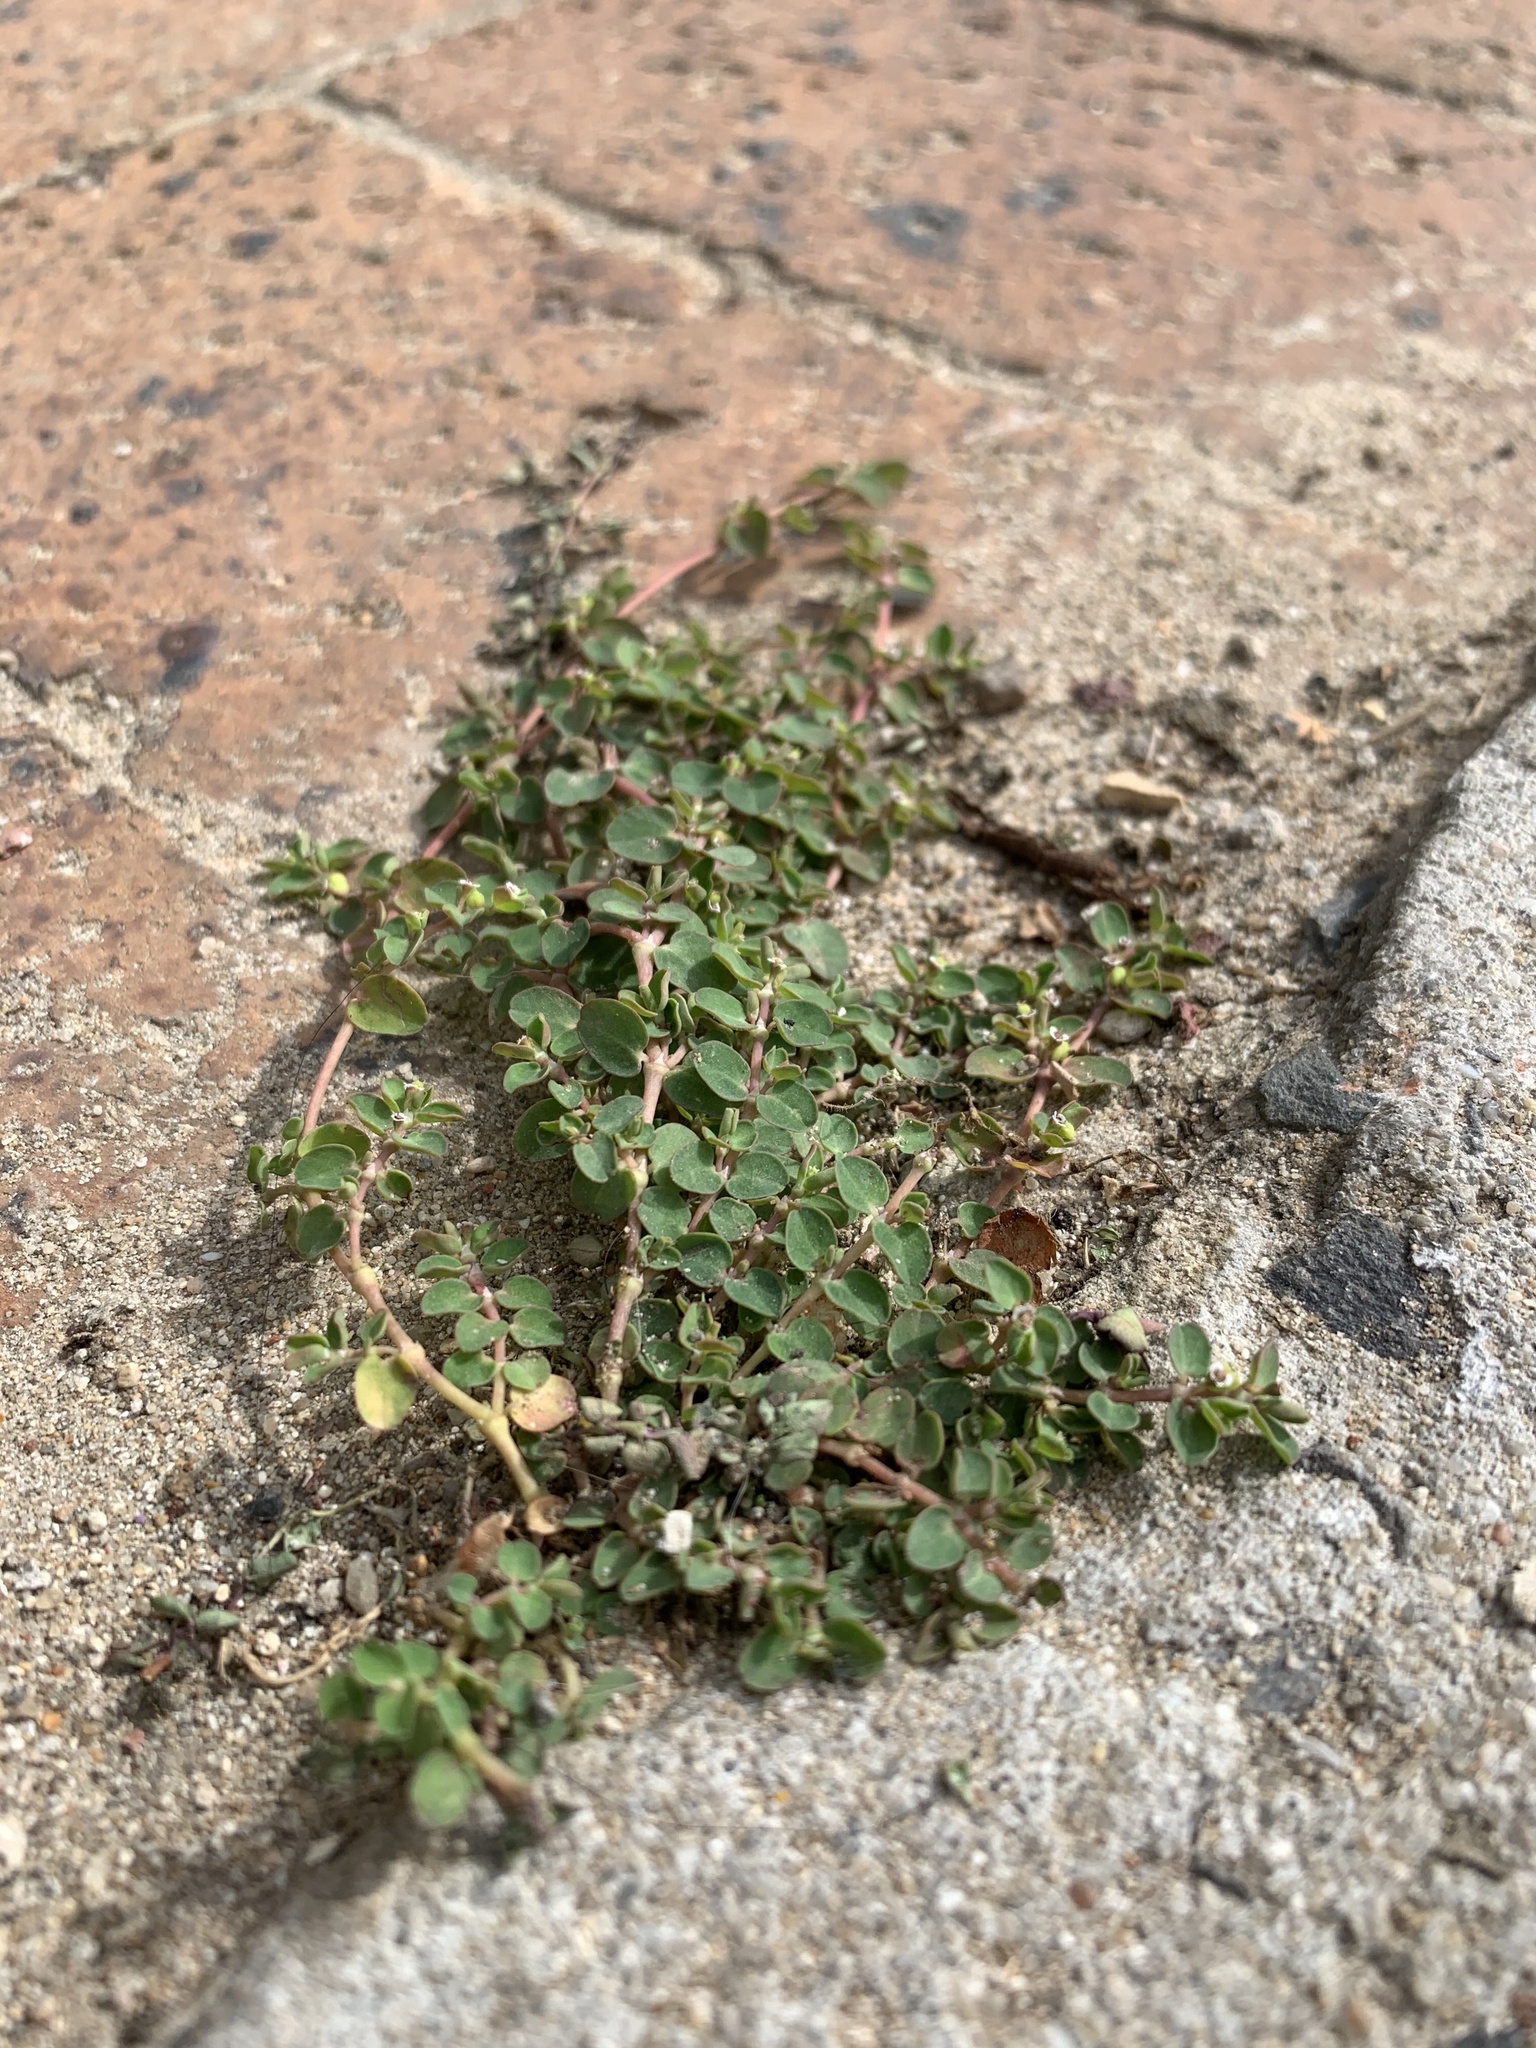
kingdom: Plantae
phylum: Tracheophyta
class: Magnoliopsida
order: Malpighiales
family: Euphorbiaceae
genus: Euphorbia
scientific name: Euphorbia serpens
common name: Matted sandmat
